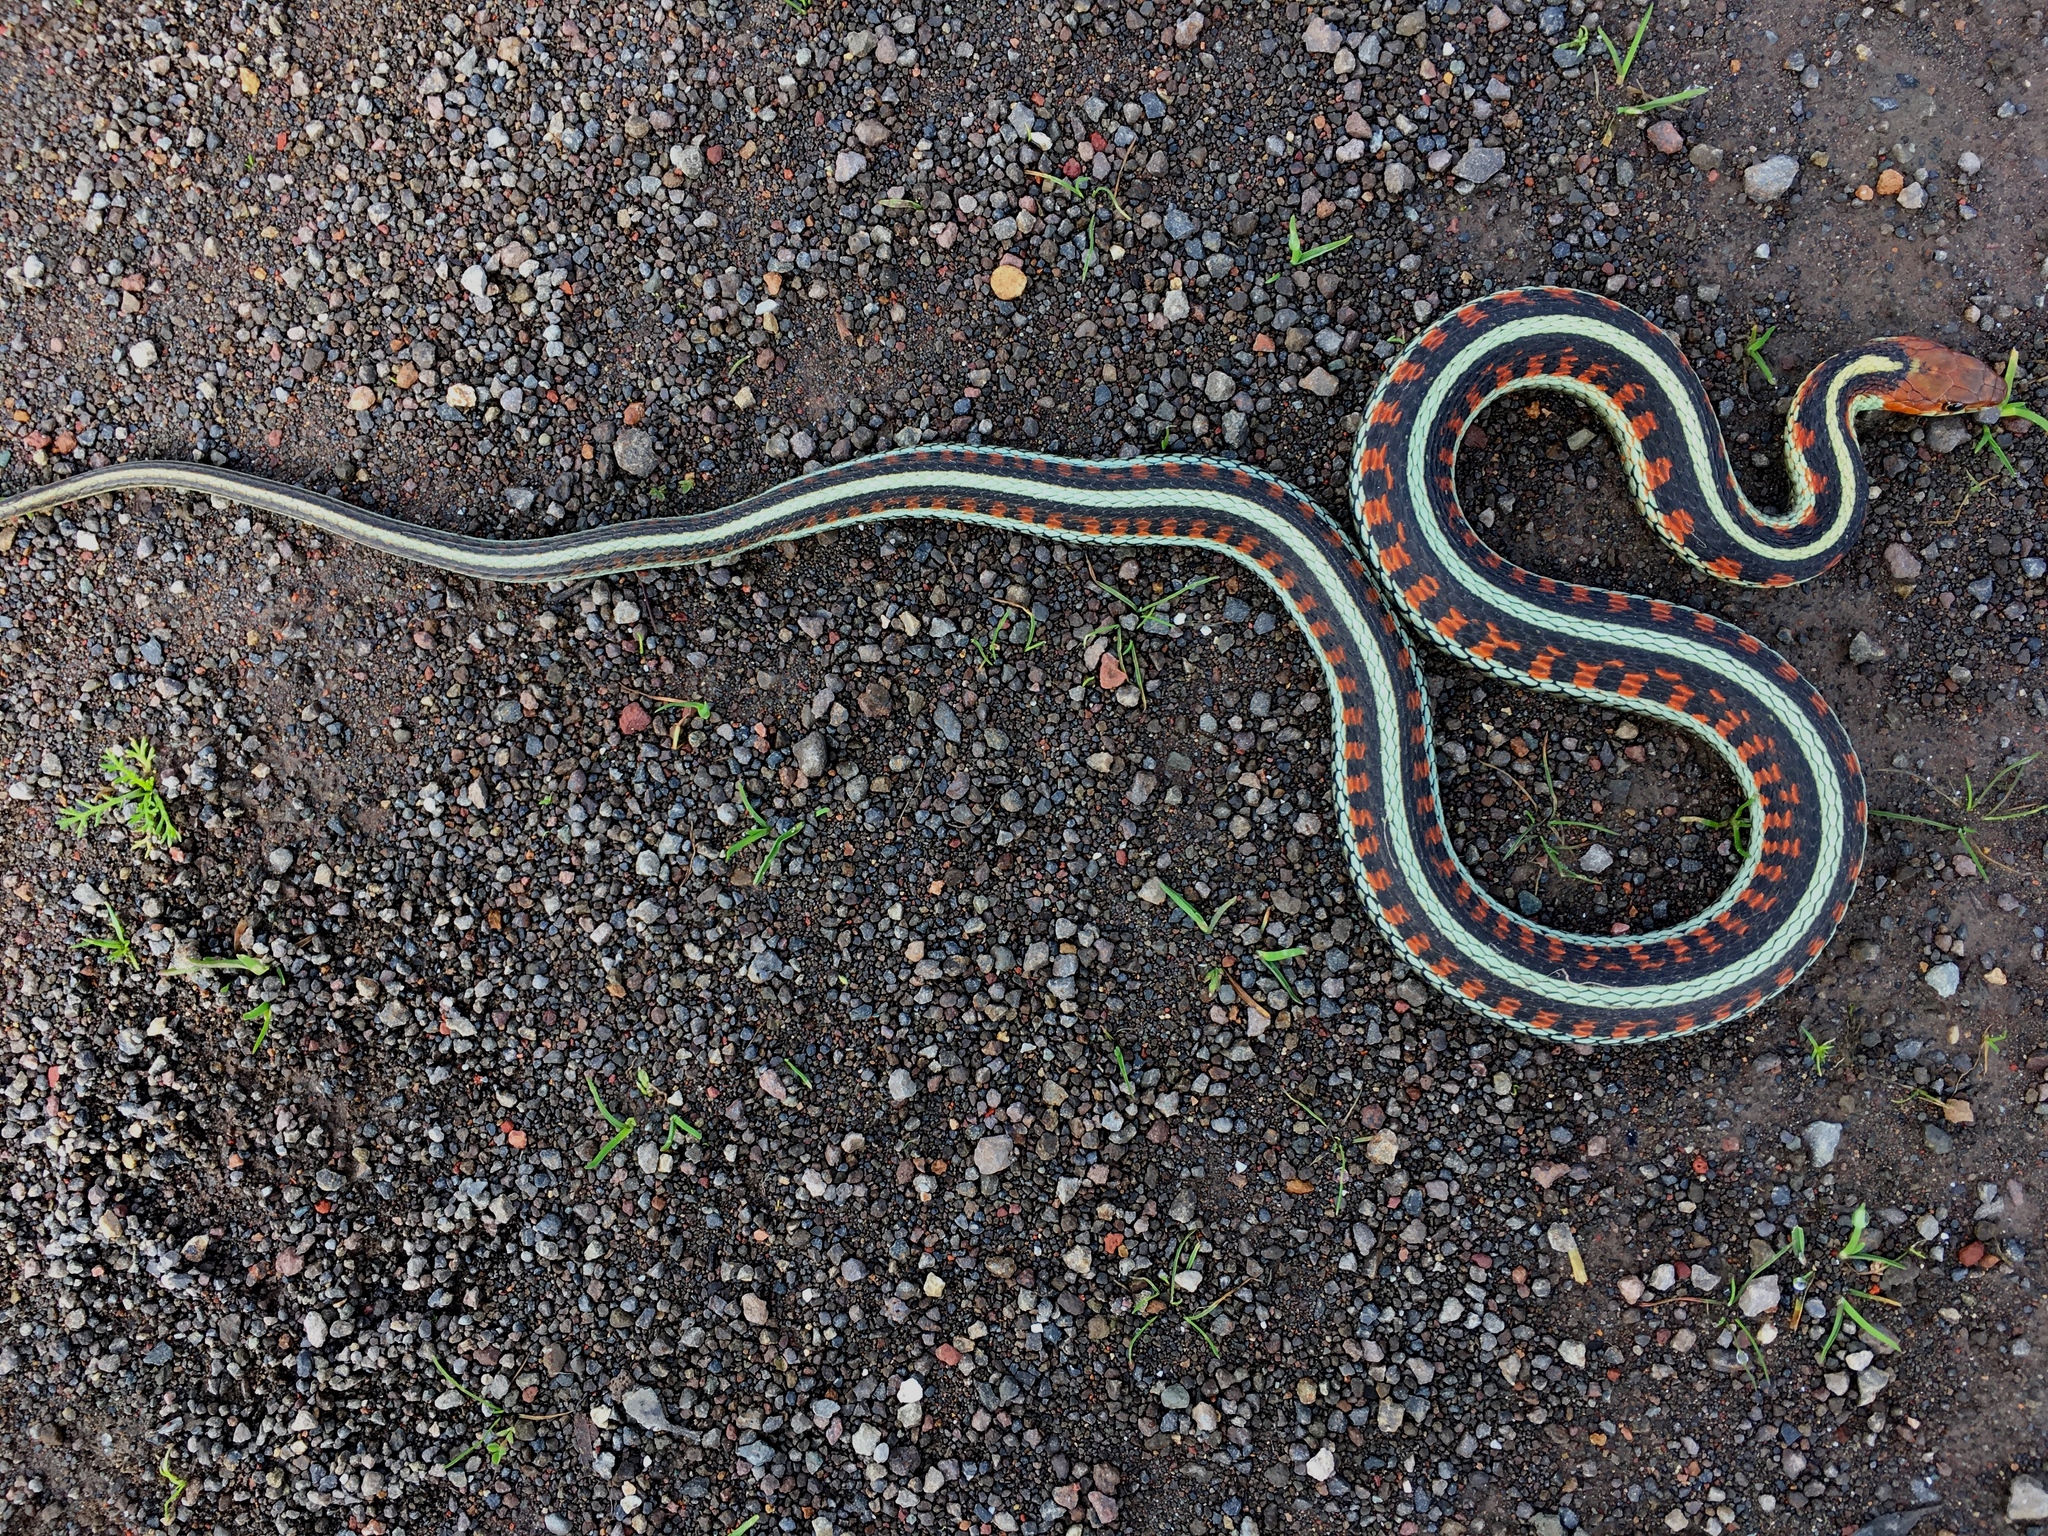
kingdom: Animalia
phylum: Chordata
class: Squamata
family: Colubridae
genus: Thamnophis
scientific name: Thamnophis sirtalis
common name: Common garter snake
